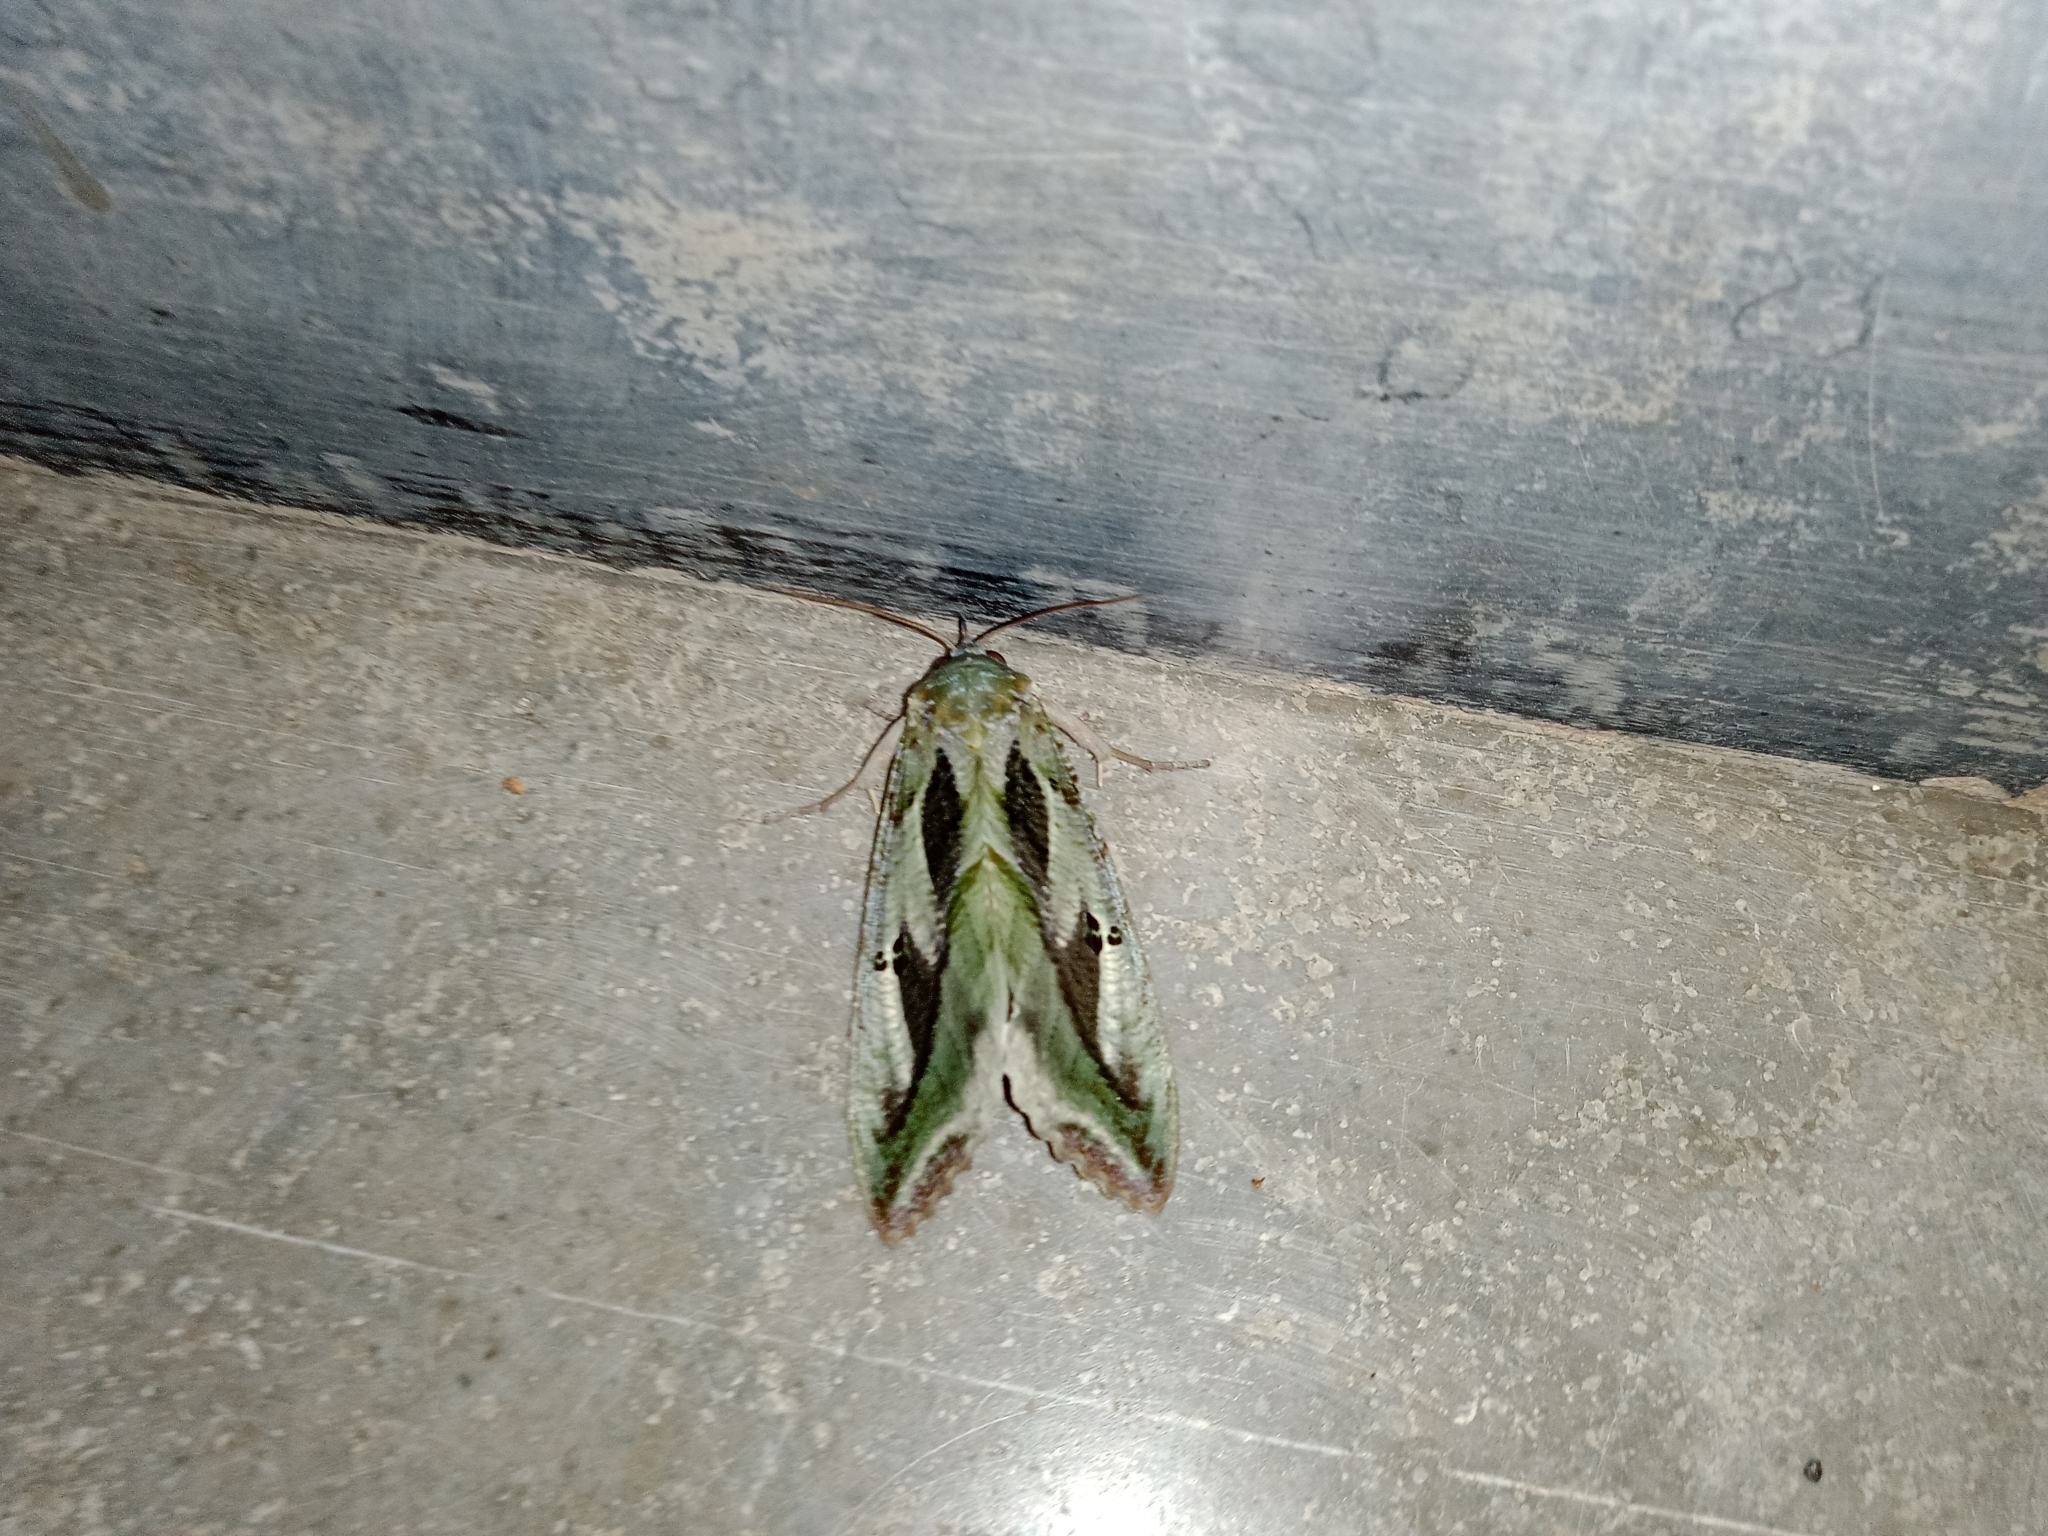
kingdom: Animalia
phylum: Arthropoda
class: Insecta
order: Lepidoptera
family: Erebidae
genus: Eudocima
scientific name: Eudocima materna
